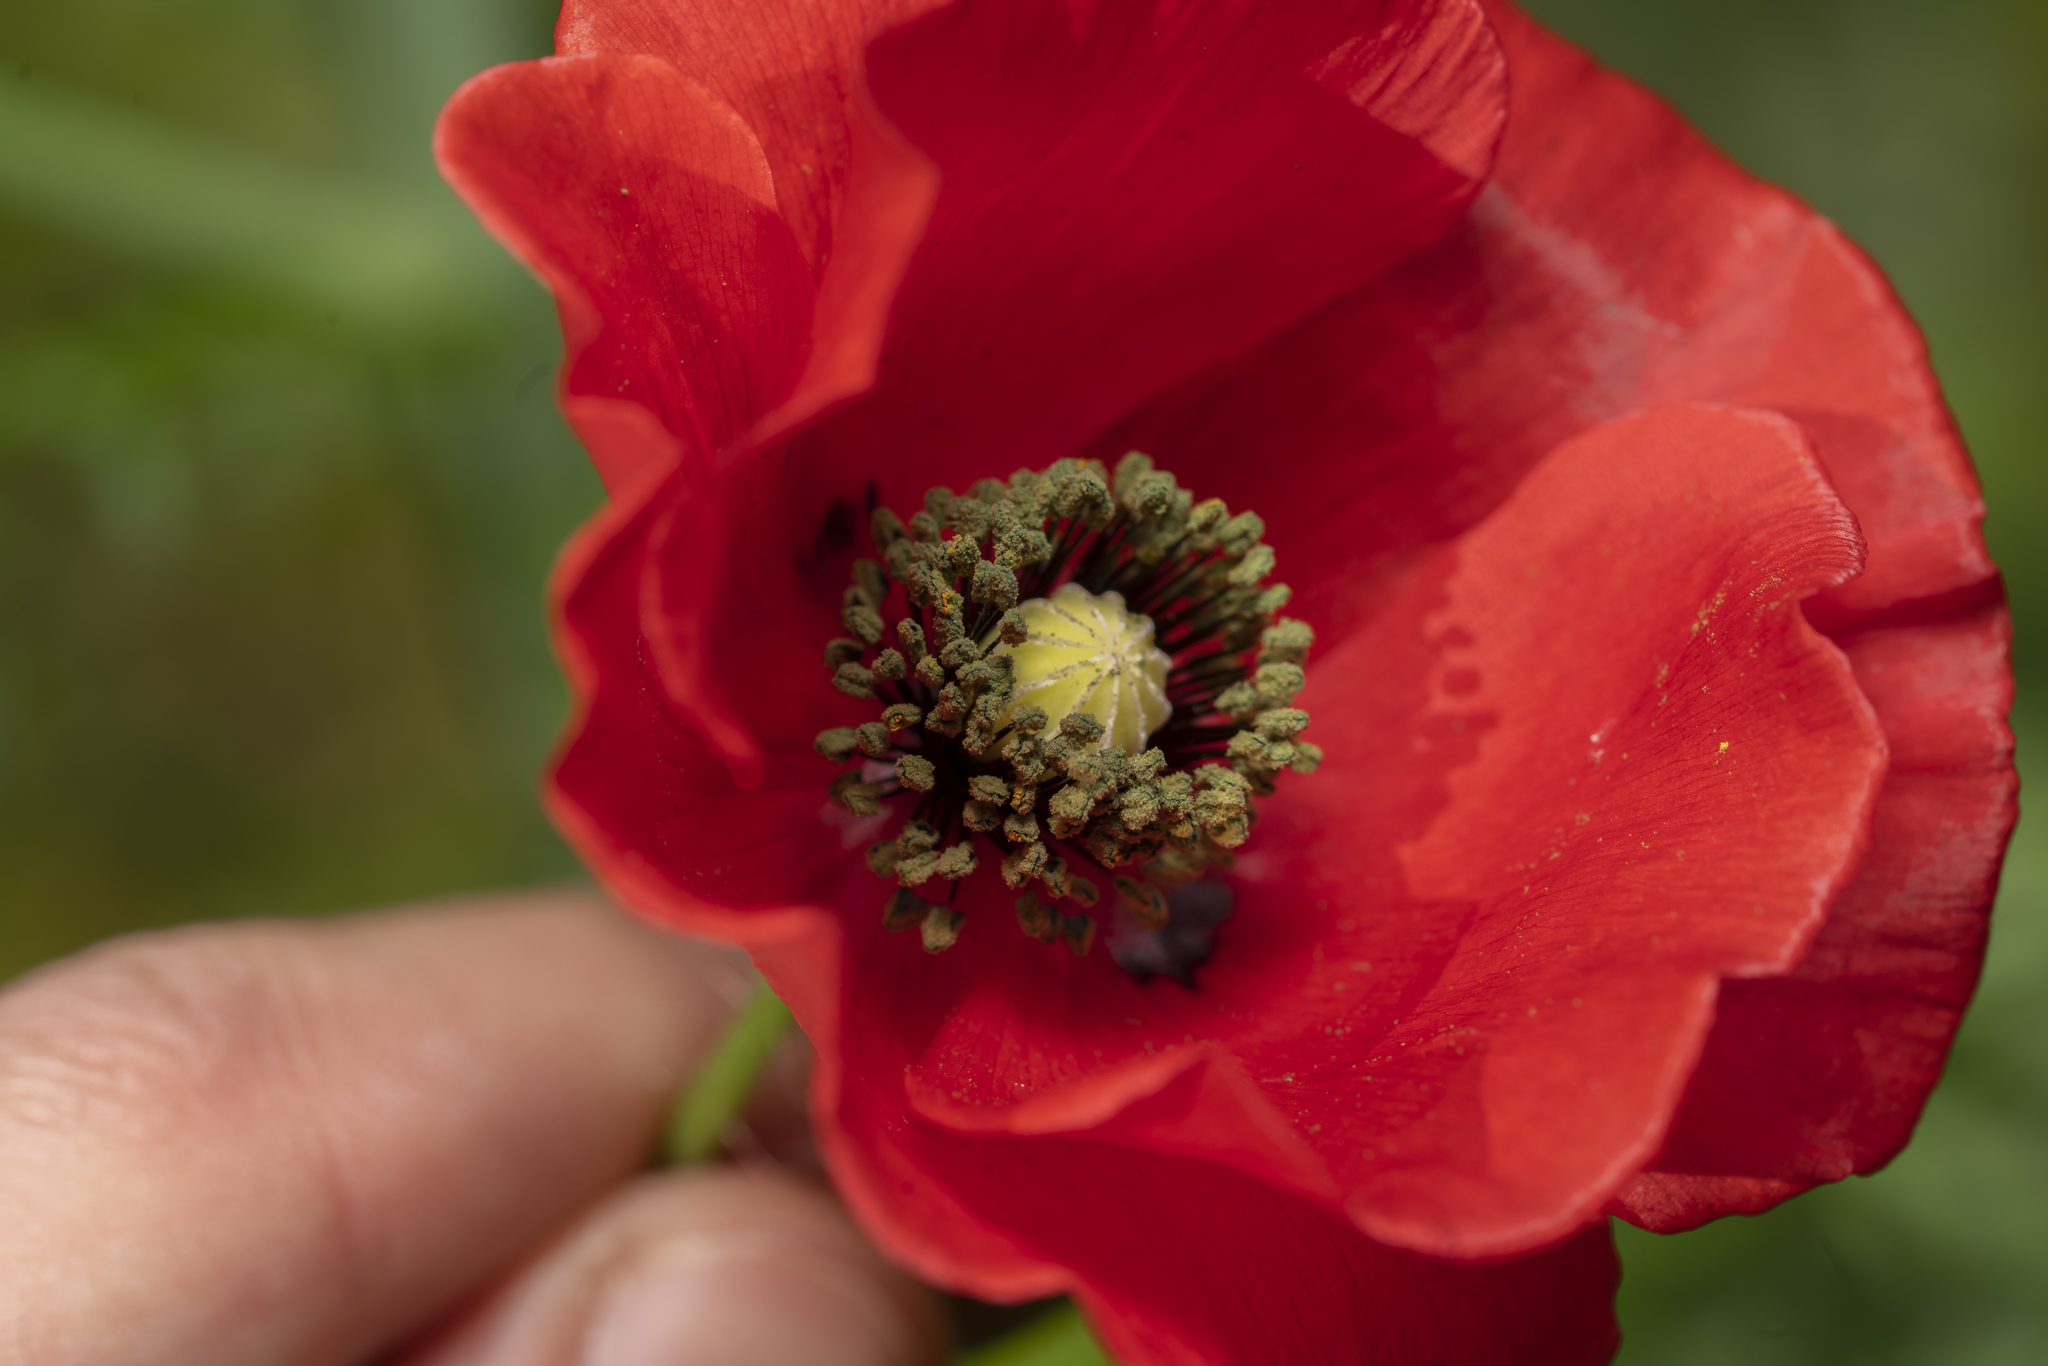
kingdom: Plantae
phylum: Tracheophyta
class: Magnoliopsida
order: Ranunculales
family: Papaveraceae
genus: Papaver
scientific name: Papaver rhoeas
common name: Corn poppy
